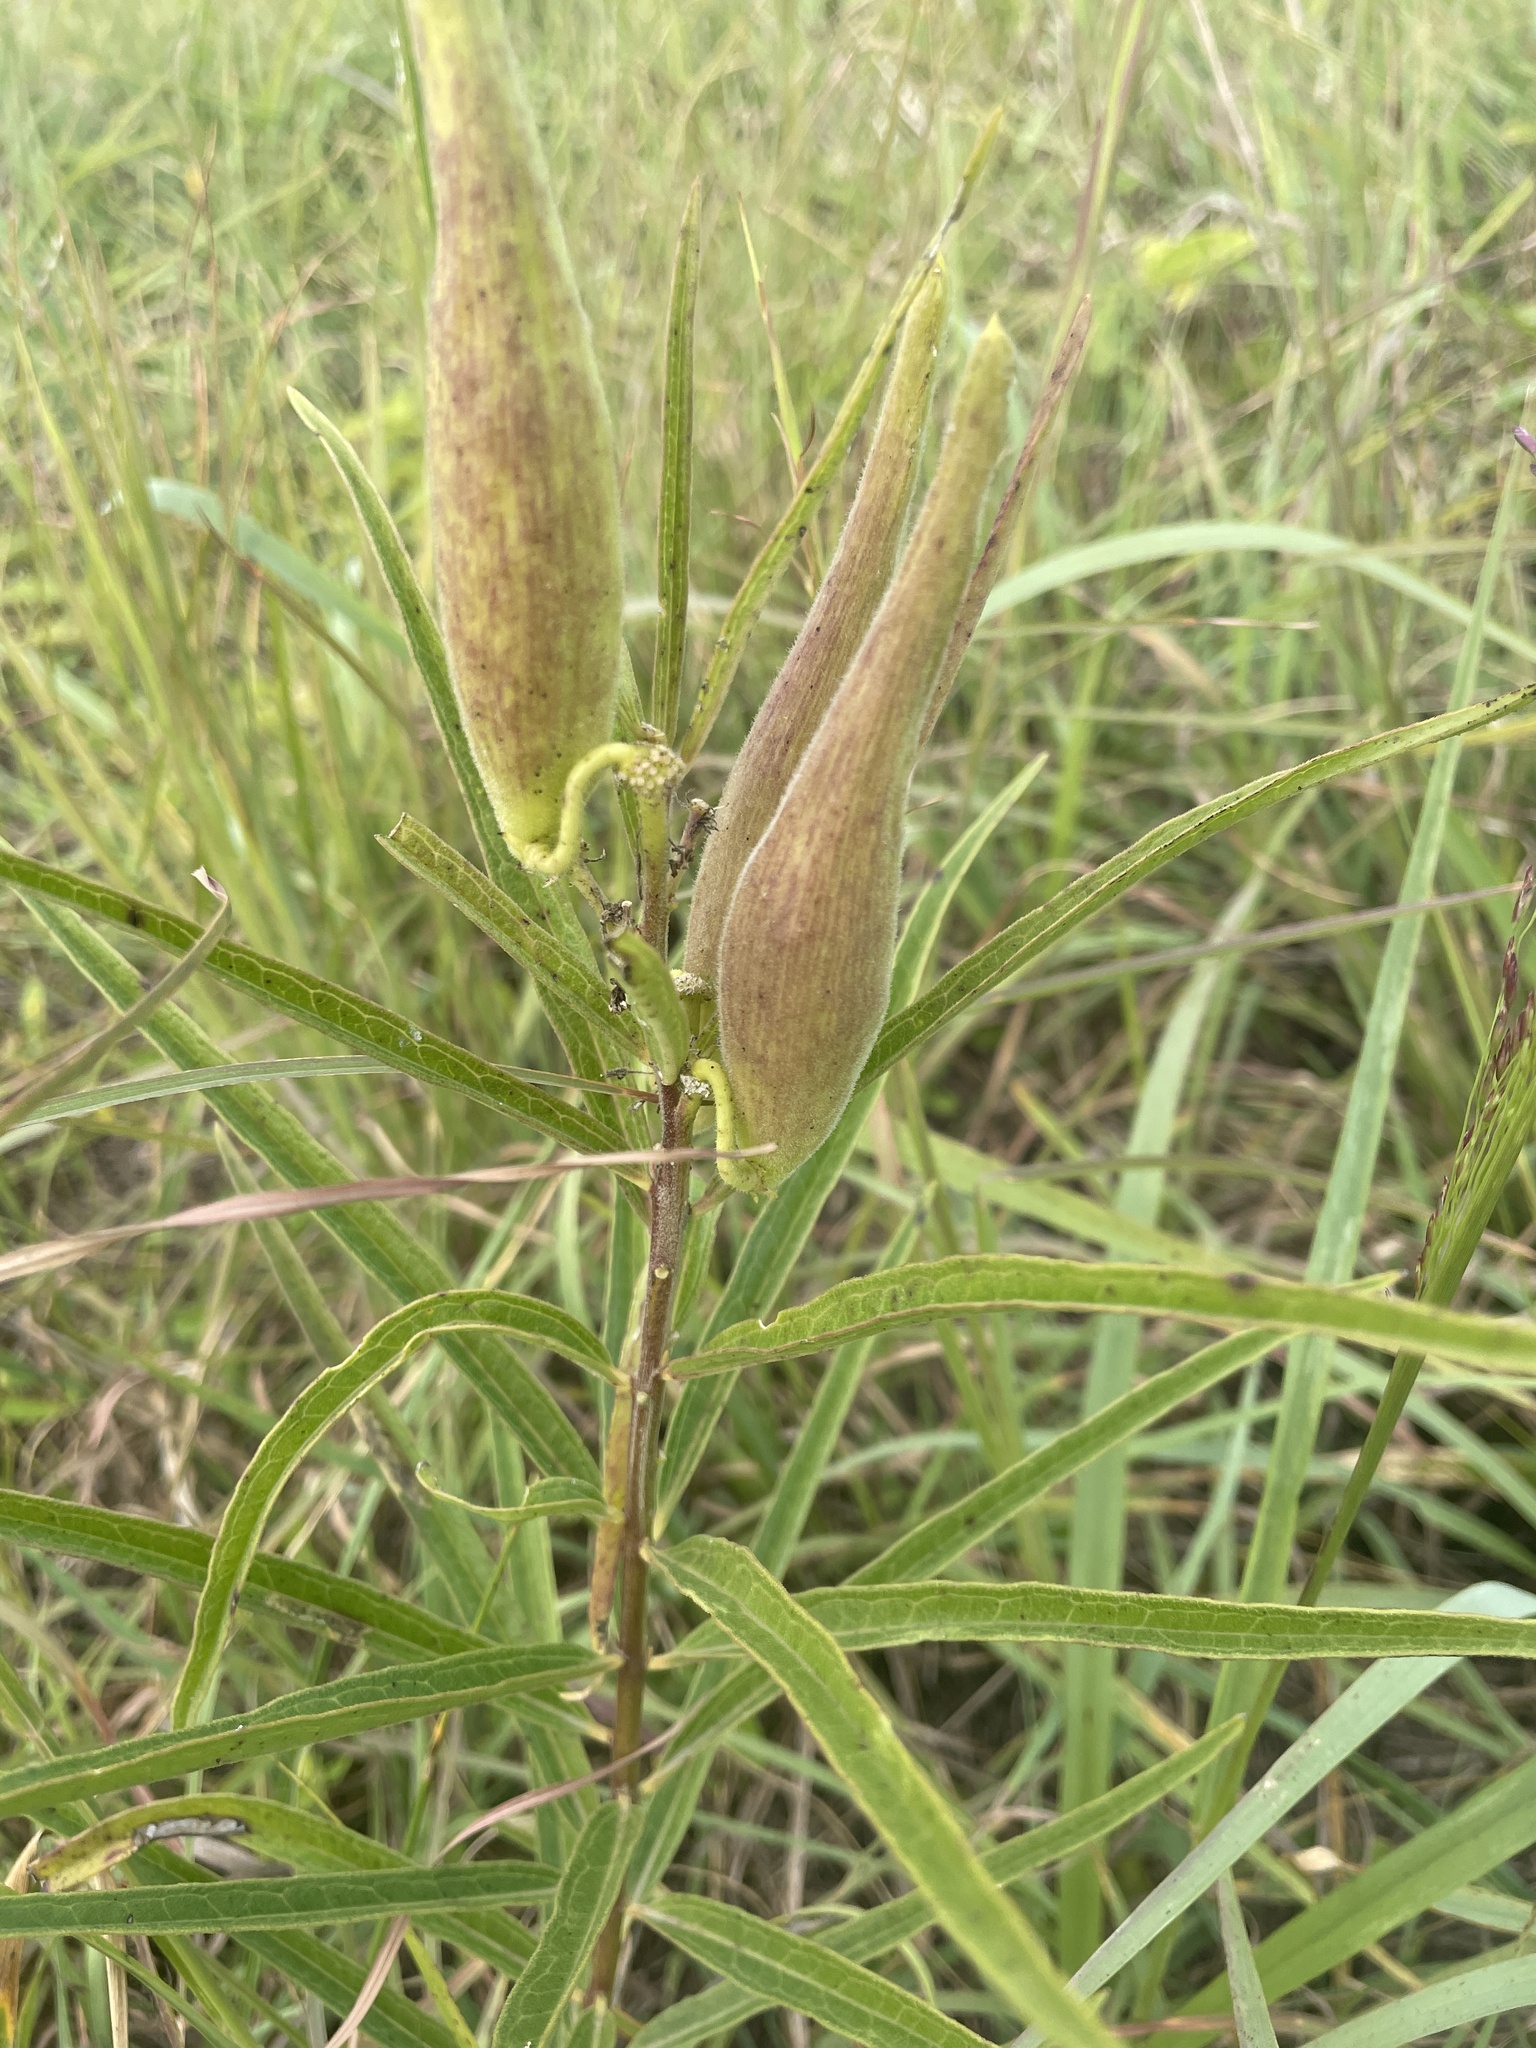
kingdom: Plantae
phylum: Tracheophyta
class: Magnoliopsida
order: Gentianales
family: Apocynaceae
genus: Asclepias
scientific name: Asclepias hirtella
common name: Prairie milkweed
